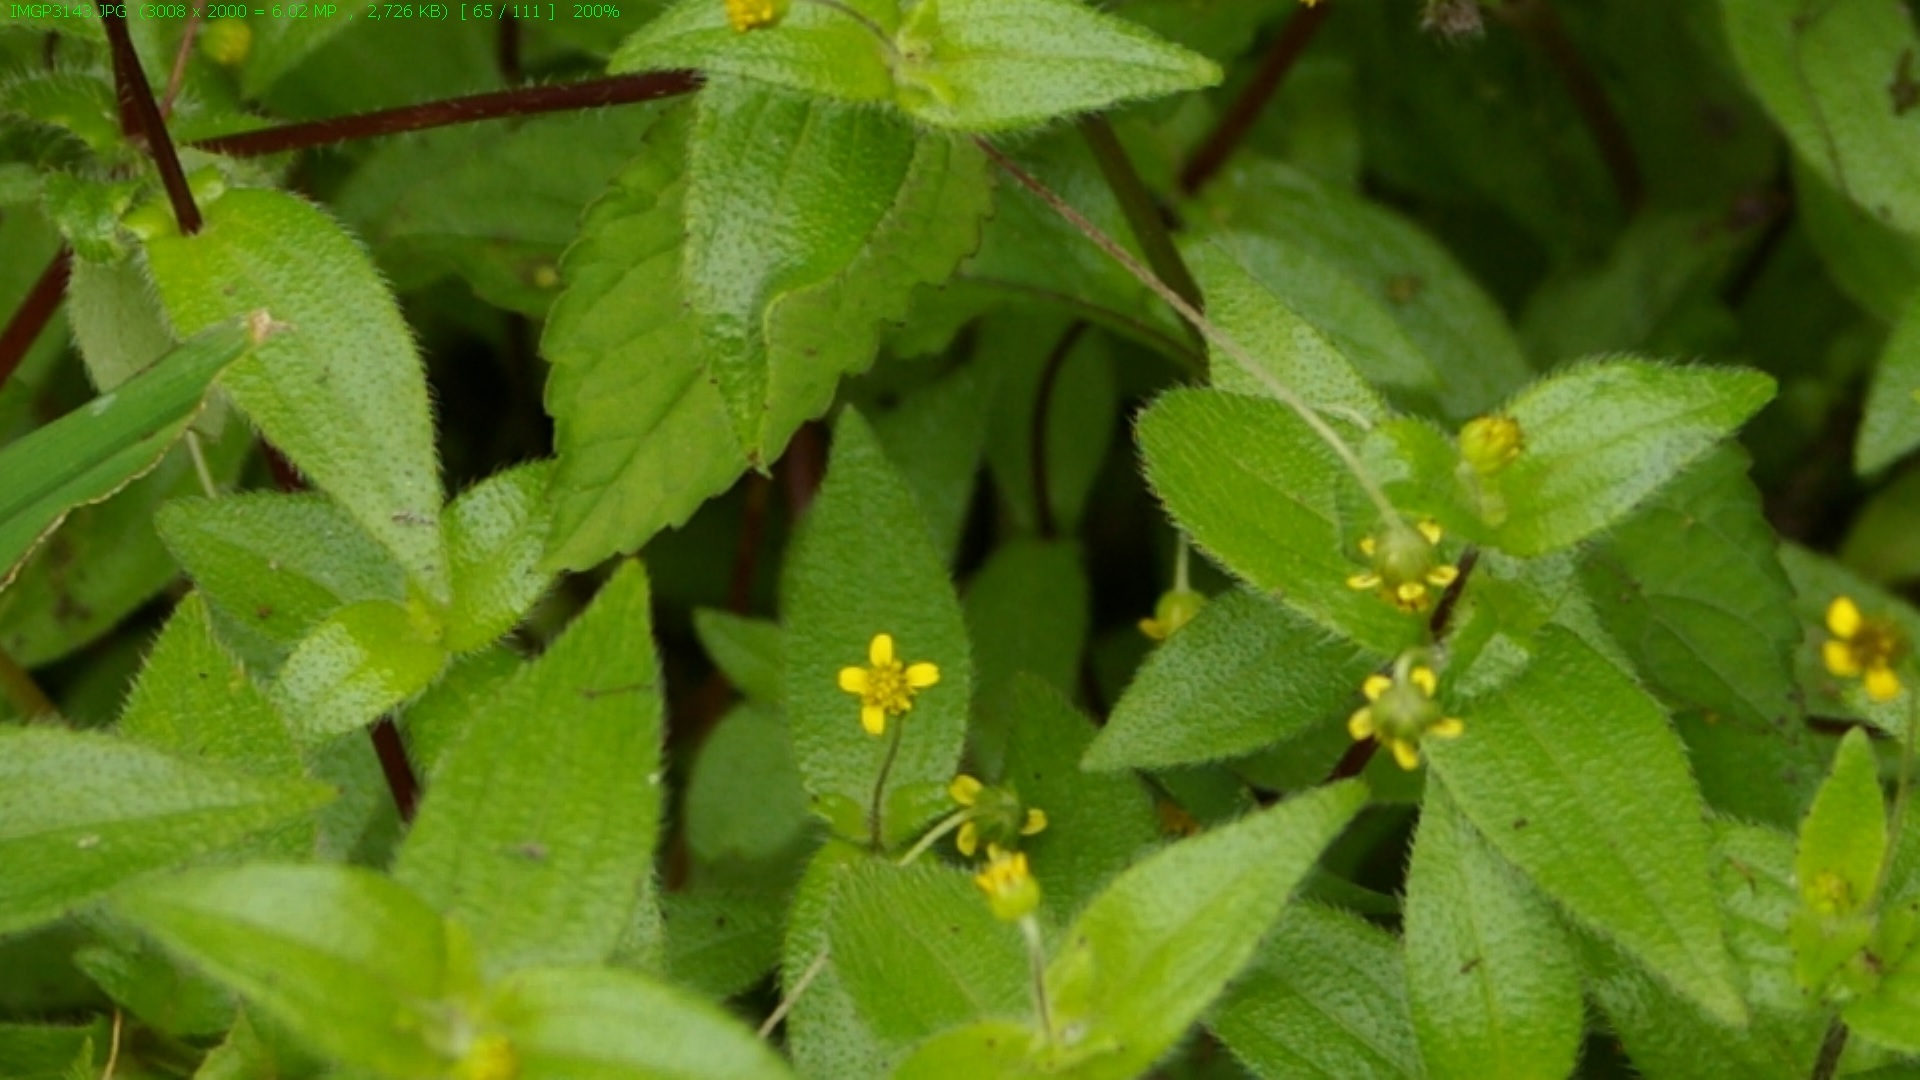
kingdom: Plantae
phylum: Tracheophyta
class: Magnoliopsida
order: Asterales
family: Asteraceae
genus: Jaegeria
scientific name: Jaegeria gracilis
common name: Galapagos jaegeria
